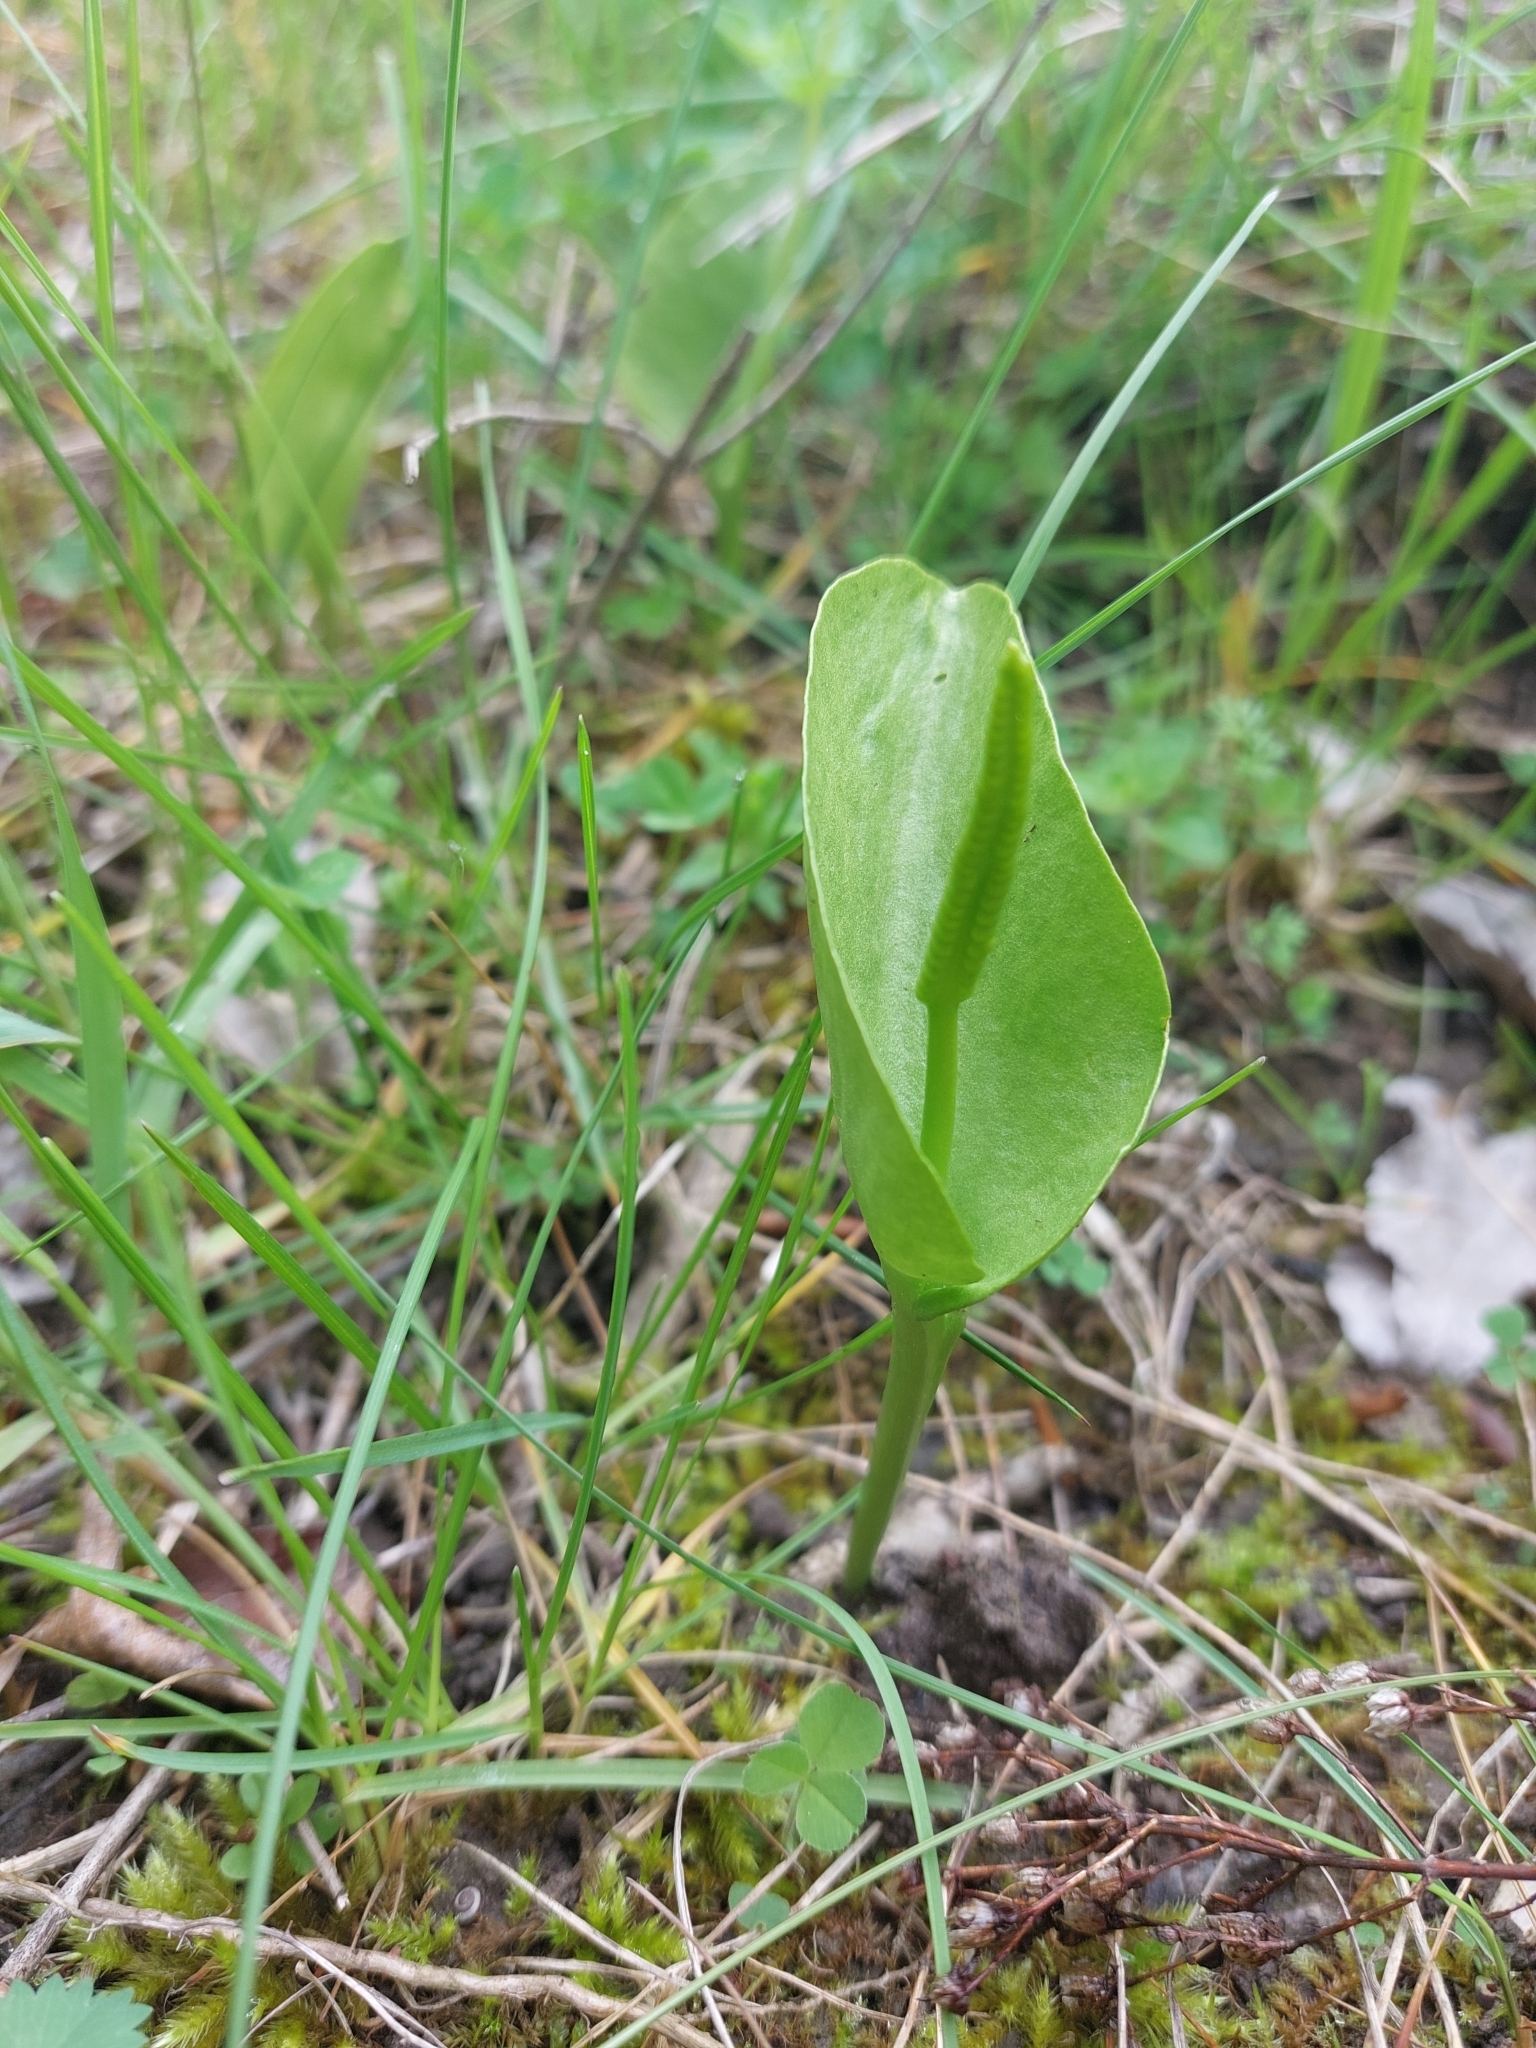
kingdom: Plantae
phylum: Tracheophyta
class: Polypodiopsida
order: Ophioglossales
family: Ophioglossaceae
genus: Ophioglossum
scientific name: Ophioglossum vulgatum
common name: Adder's-tongue
